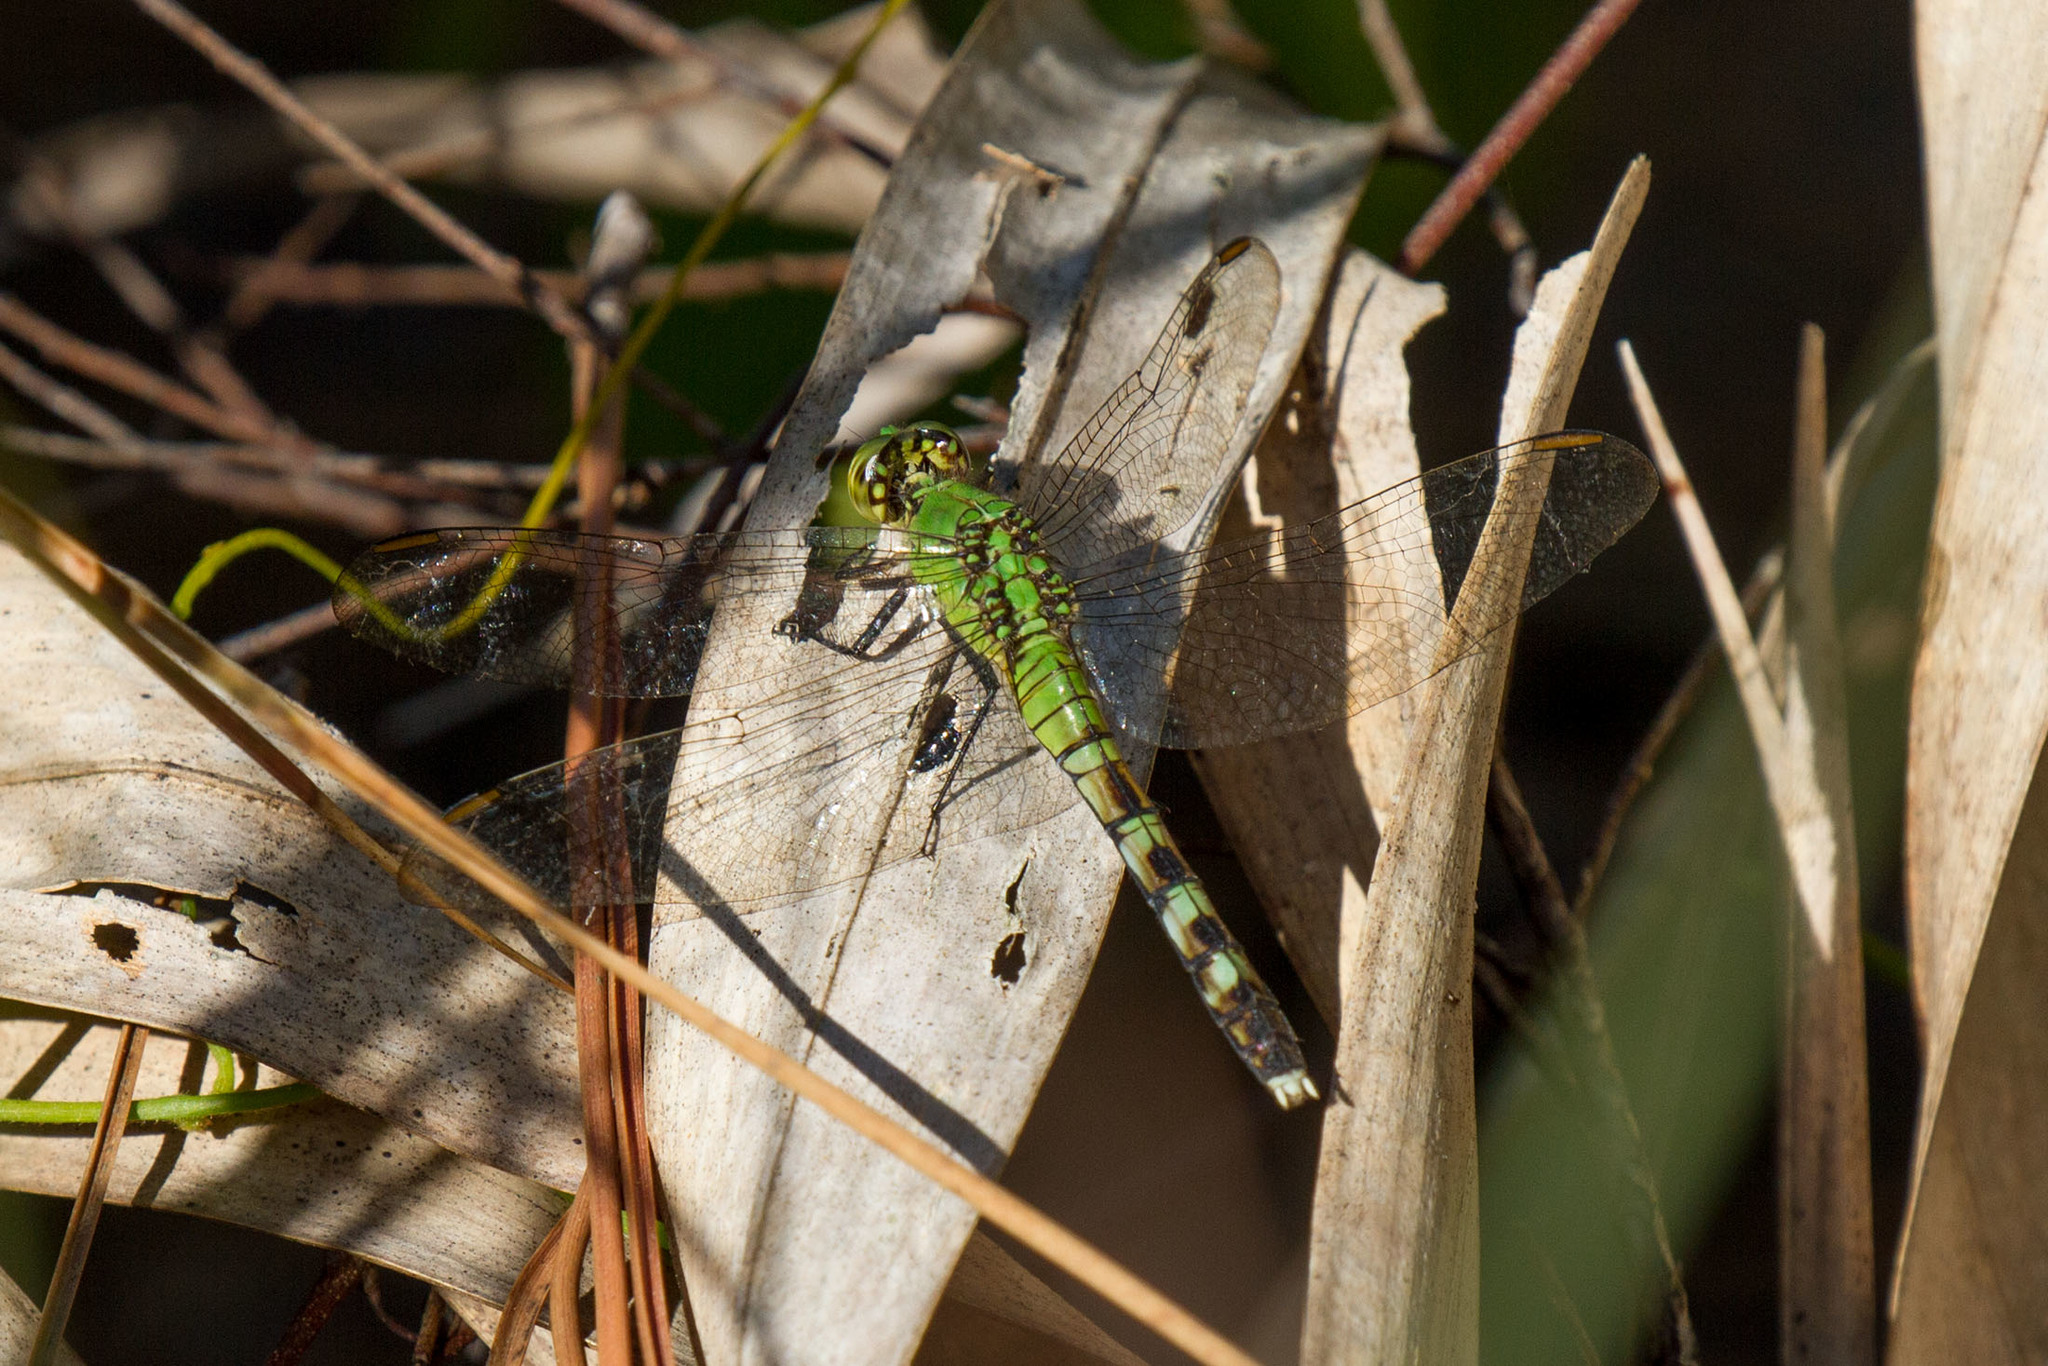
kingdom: Animalia
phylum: Arthropoda
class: Insecta
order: Odonata
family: Libellulidae
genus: Erythemis
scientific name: Erythemis simplicicollis
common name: Eastern pondhawk
